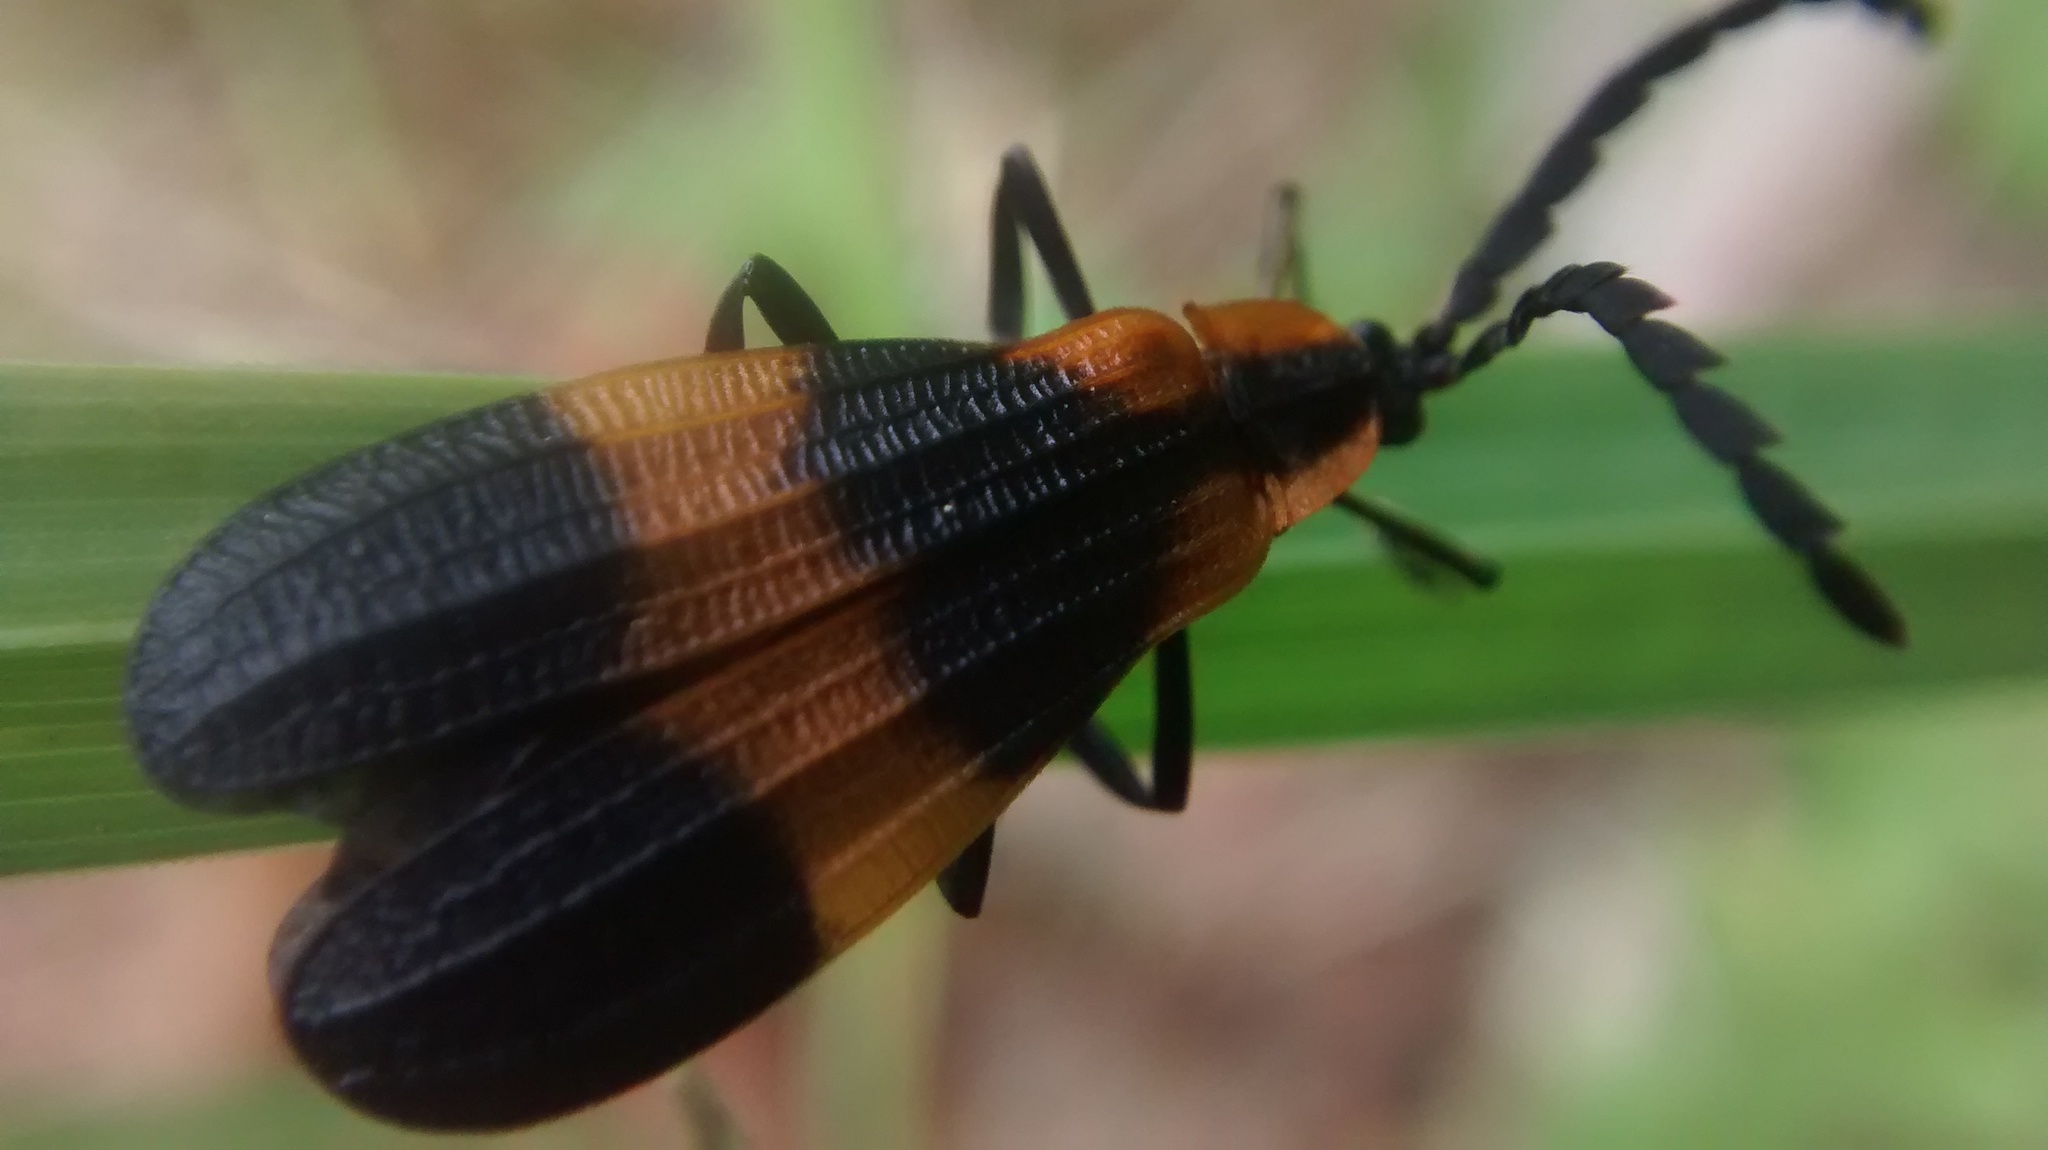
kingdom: Animalia
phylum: Arthropoda
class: Insecta
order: Coleoptera
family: Lycidae
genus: Calopteron
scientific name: Calopteron reticulatum
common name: Banded net-winged beetle
